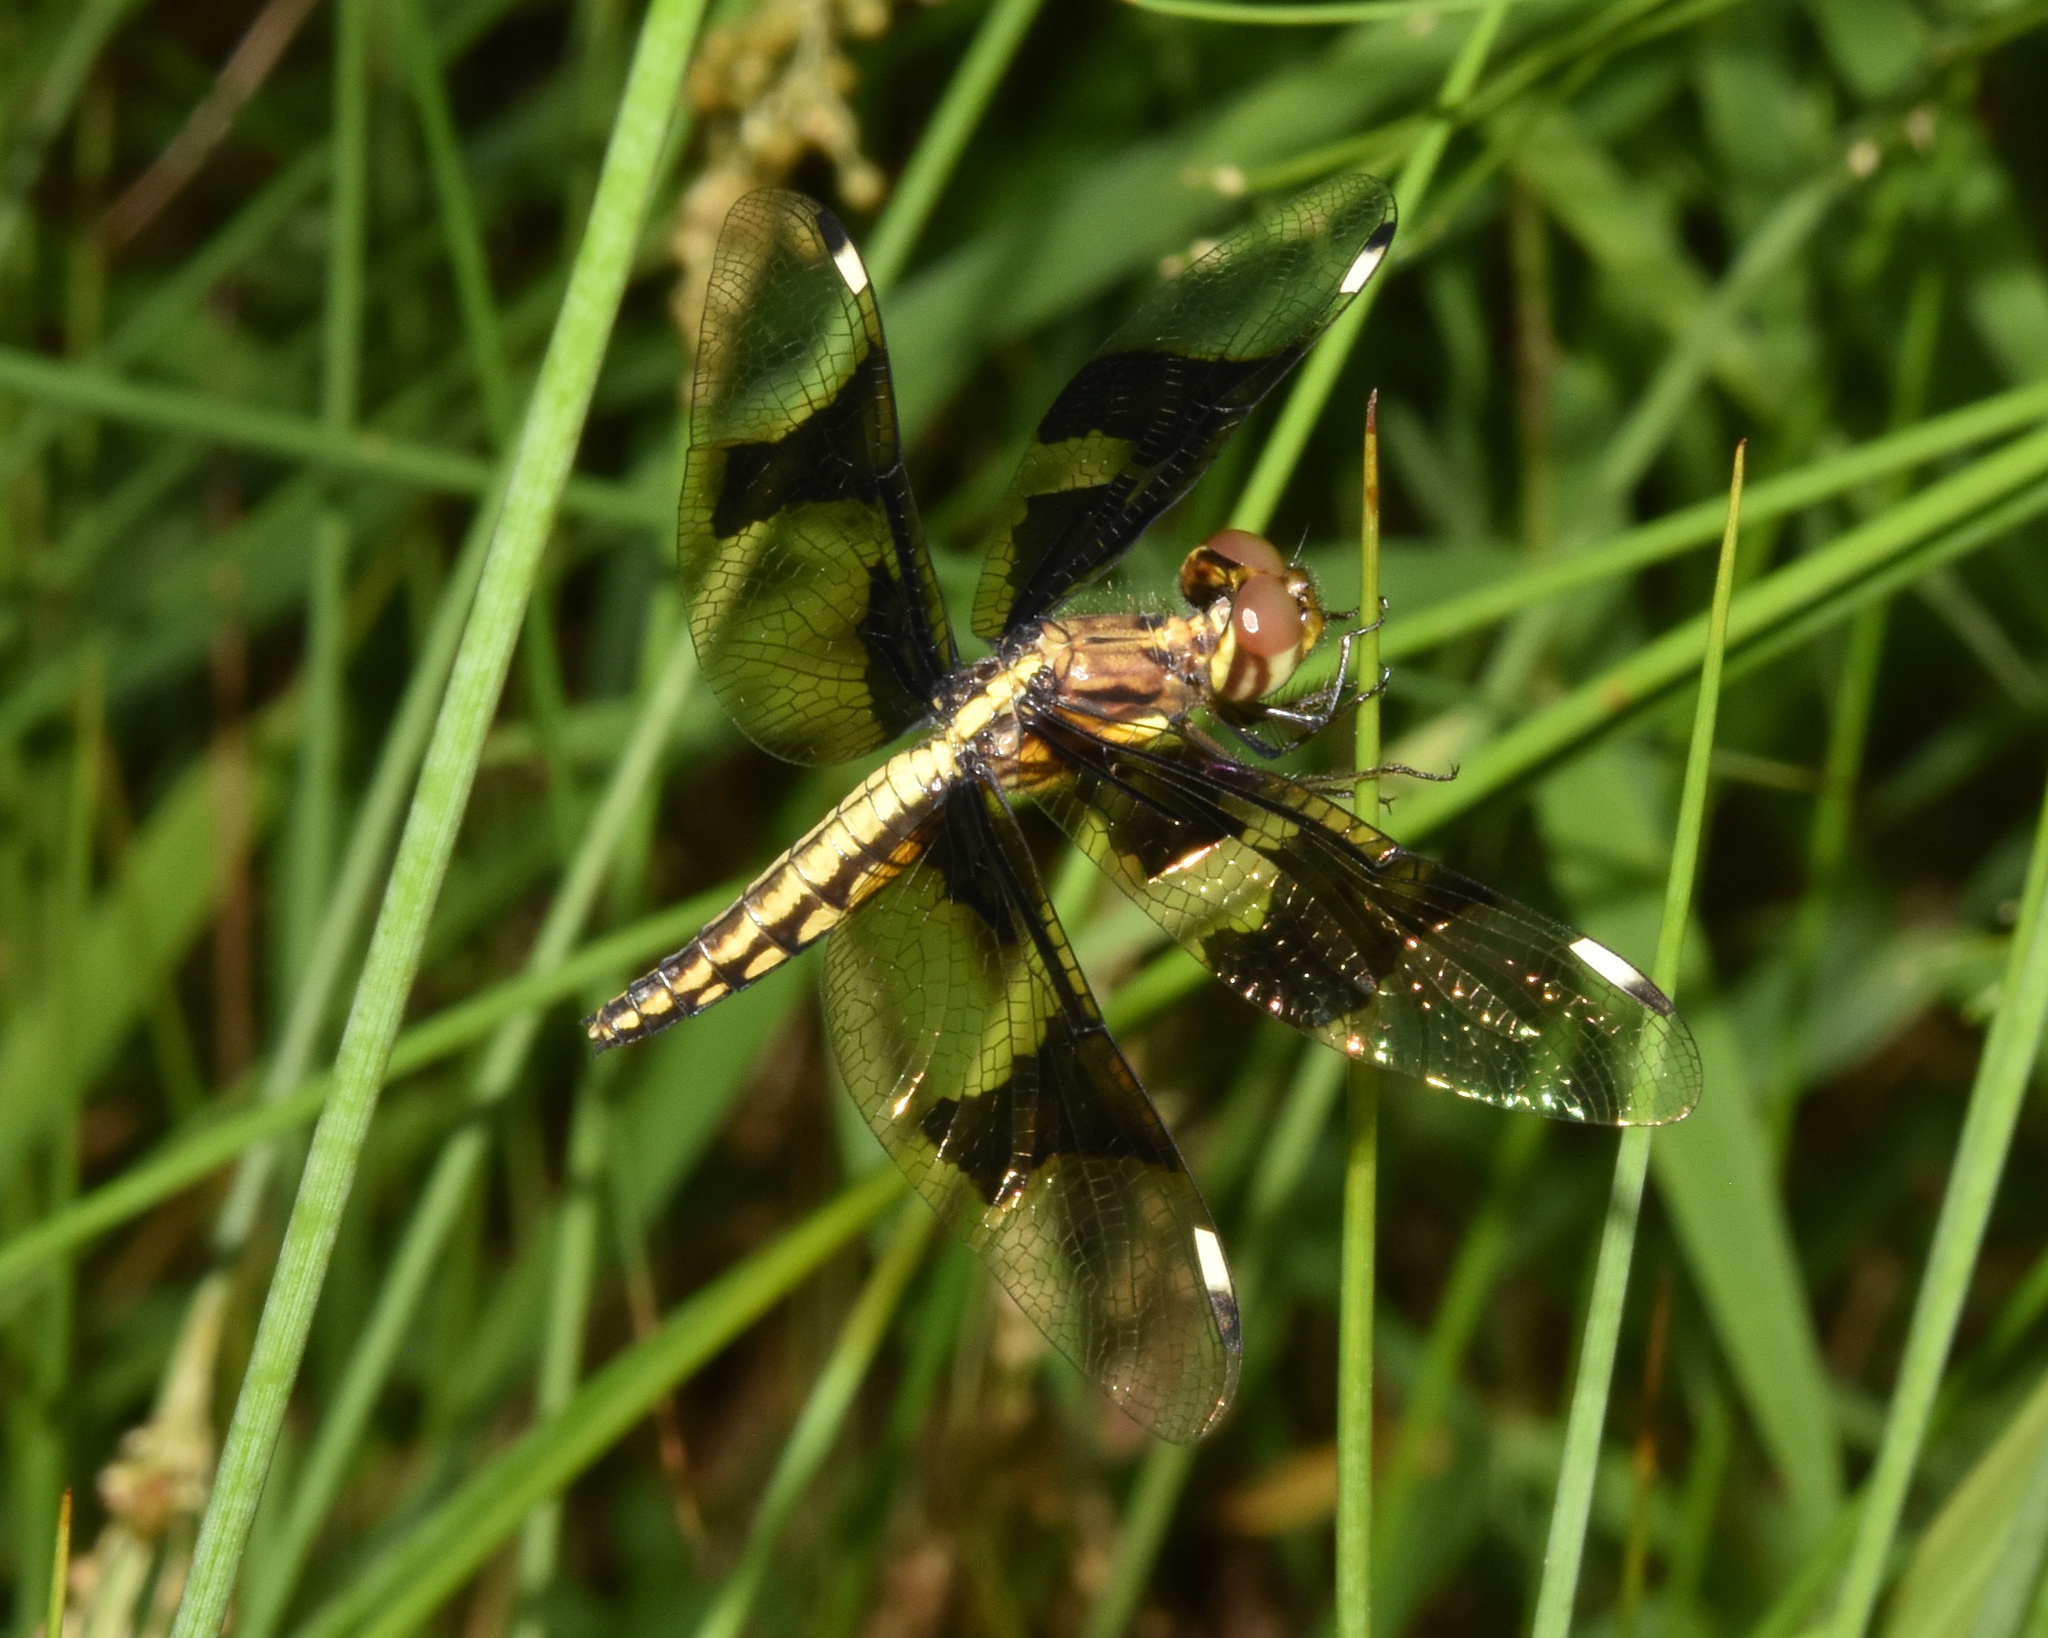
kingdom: Animalia
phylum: Arthropoda
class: Insecta
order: Odonata
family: Libellulidae
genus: Palpopleura
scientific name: Palpopleura lucia
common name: Lucia widow
